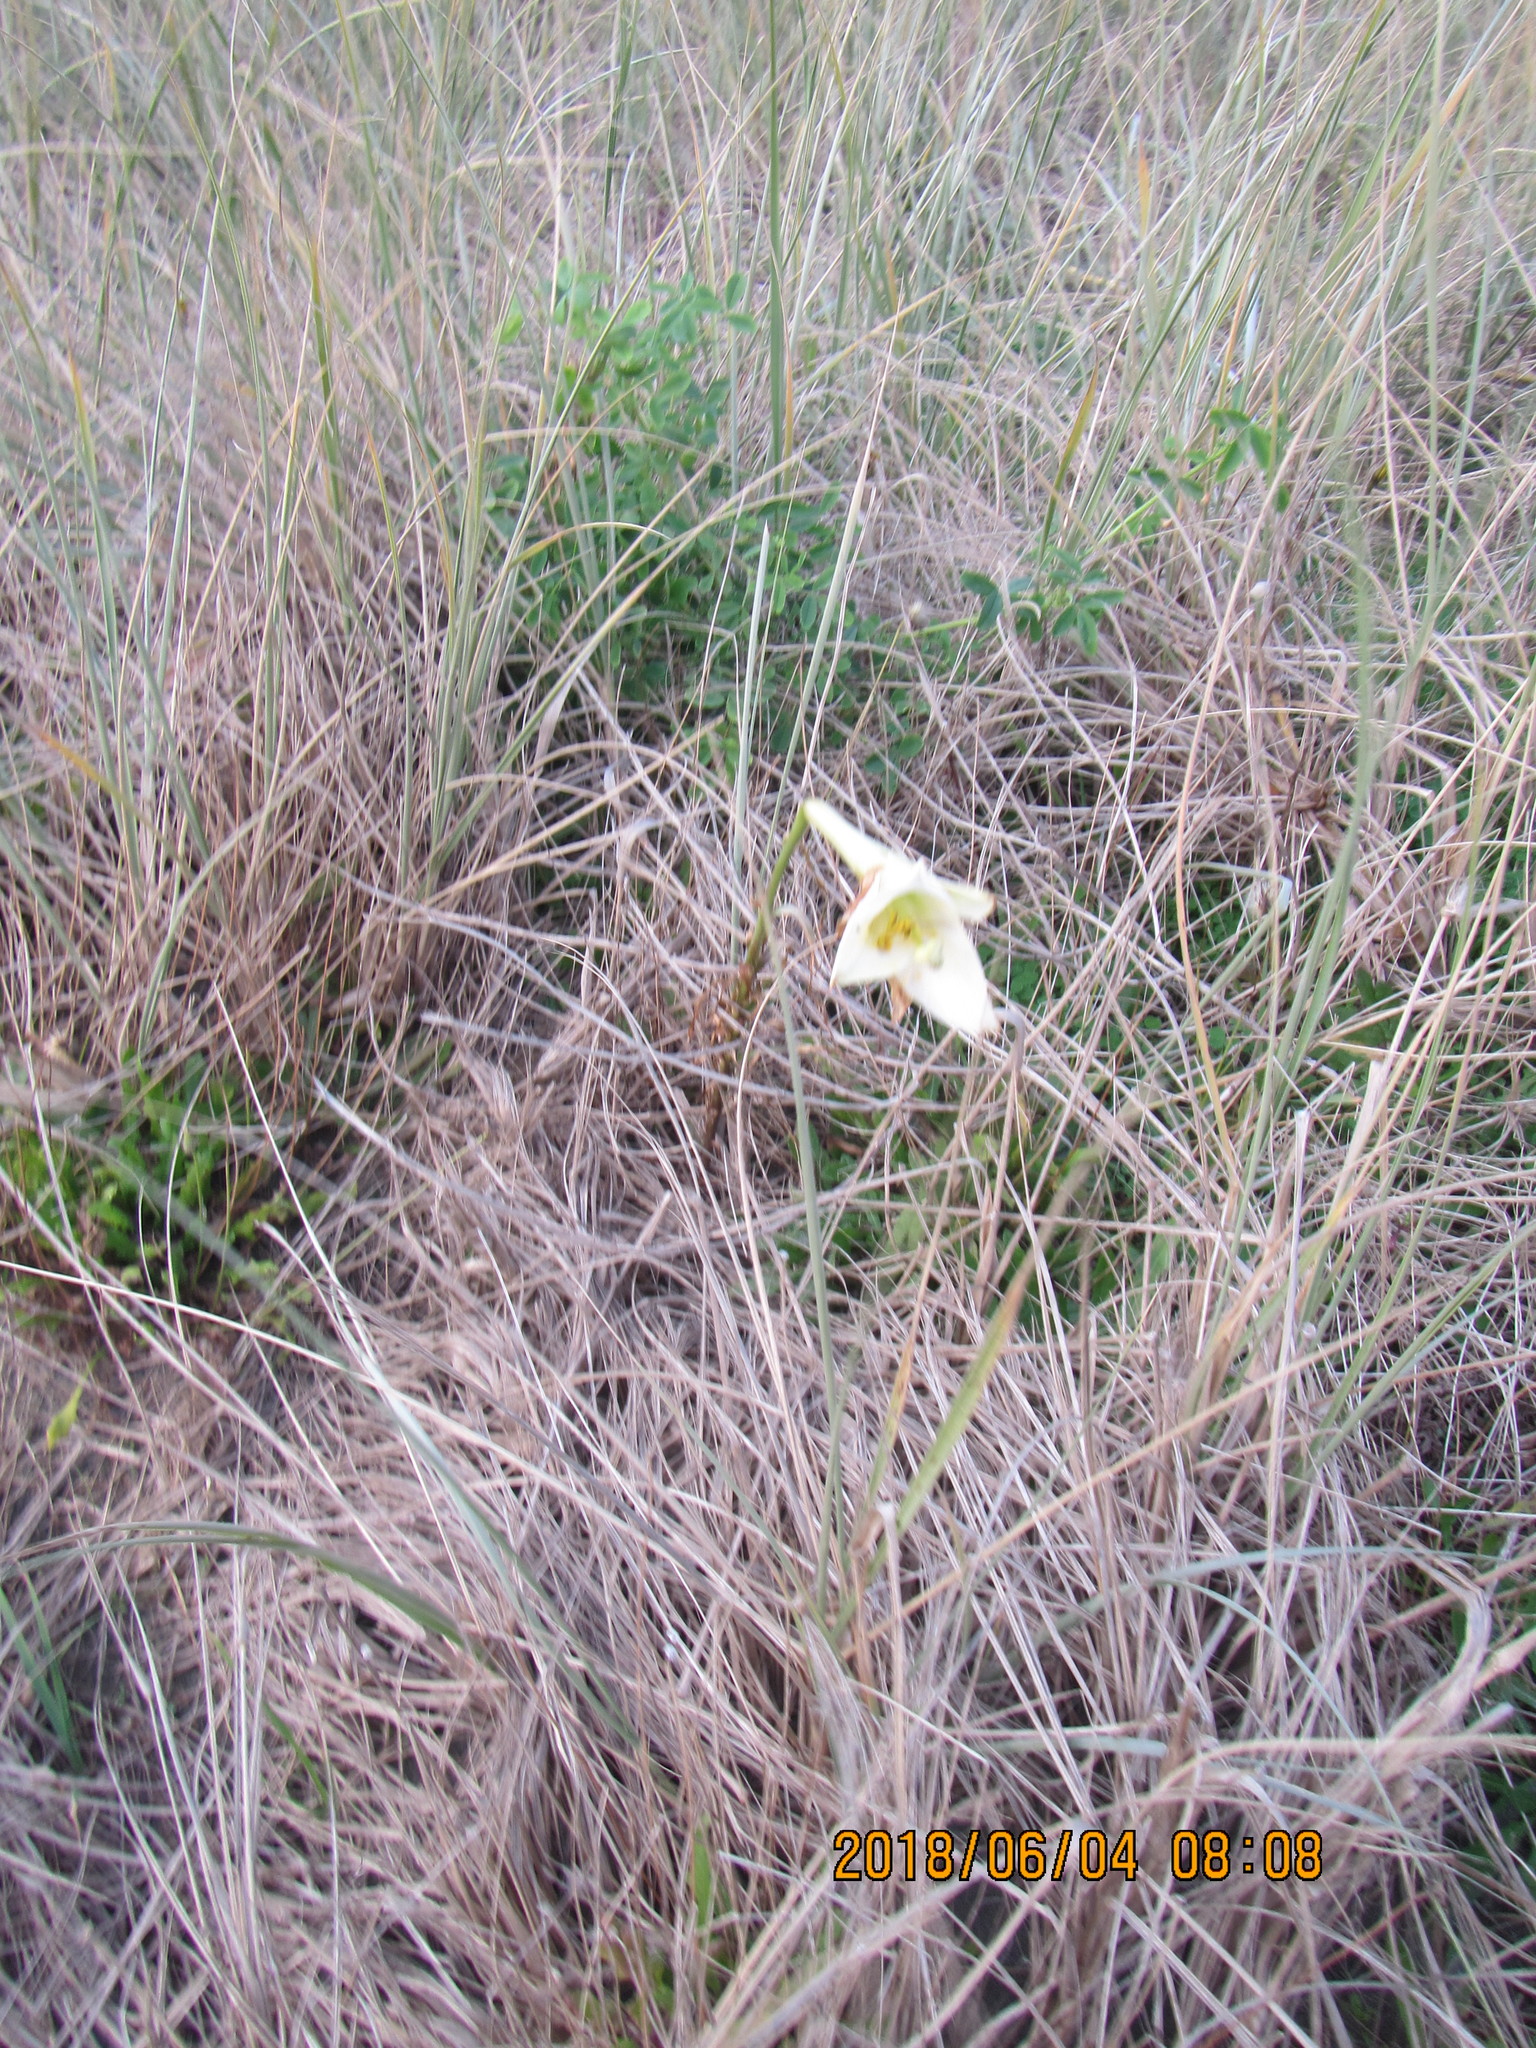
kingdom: Plantae
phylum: Tracheophyta
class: Magnoliopsida
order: Asterales
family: Asteraceae
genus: Senecio
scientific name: Senecio glastifolius
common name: Woad-leaved ragwort
